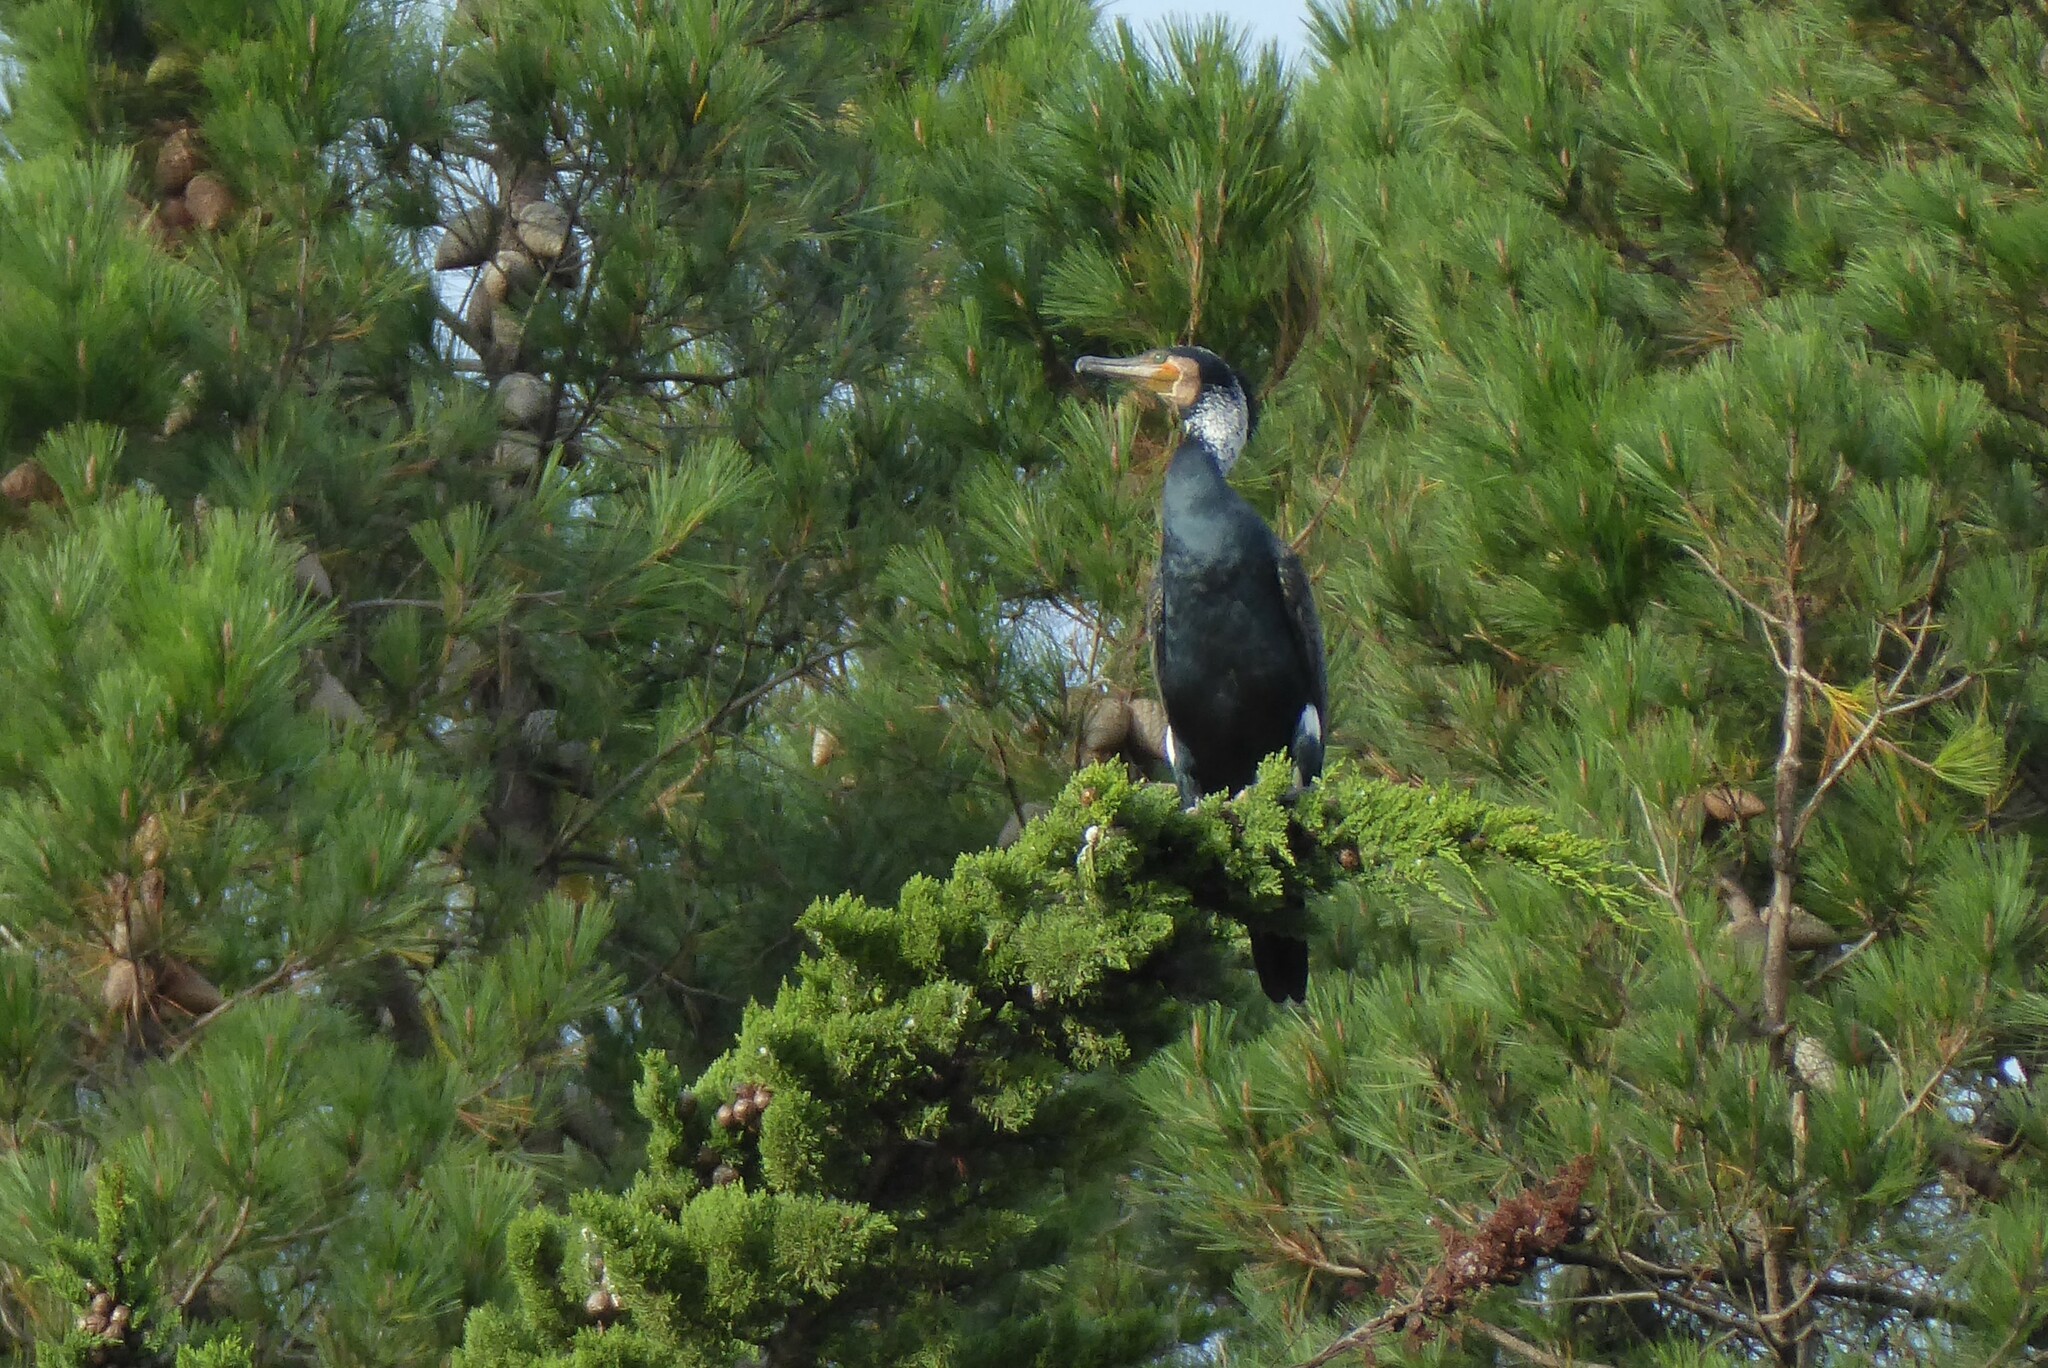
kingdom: Animalia
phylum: Chordata
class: Aves
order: Suliformes
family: Phalacrocoracidae
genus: Phalacrocorax
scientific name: Phalacrocorax carbo
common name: Great cormorant
